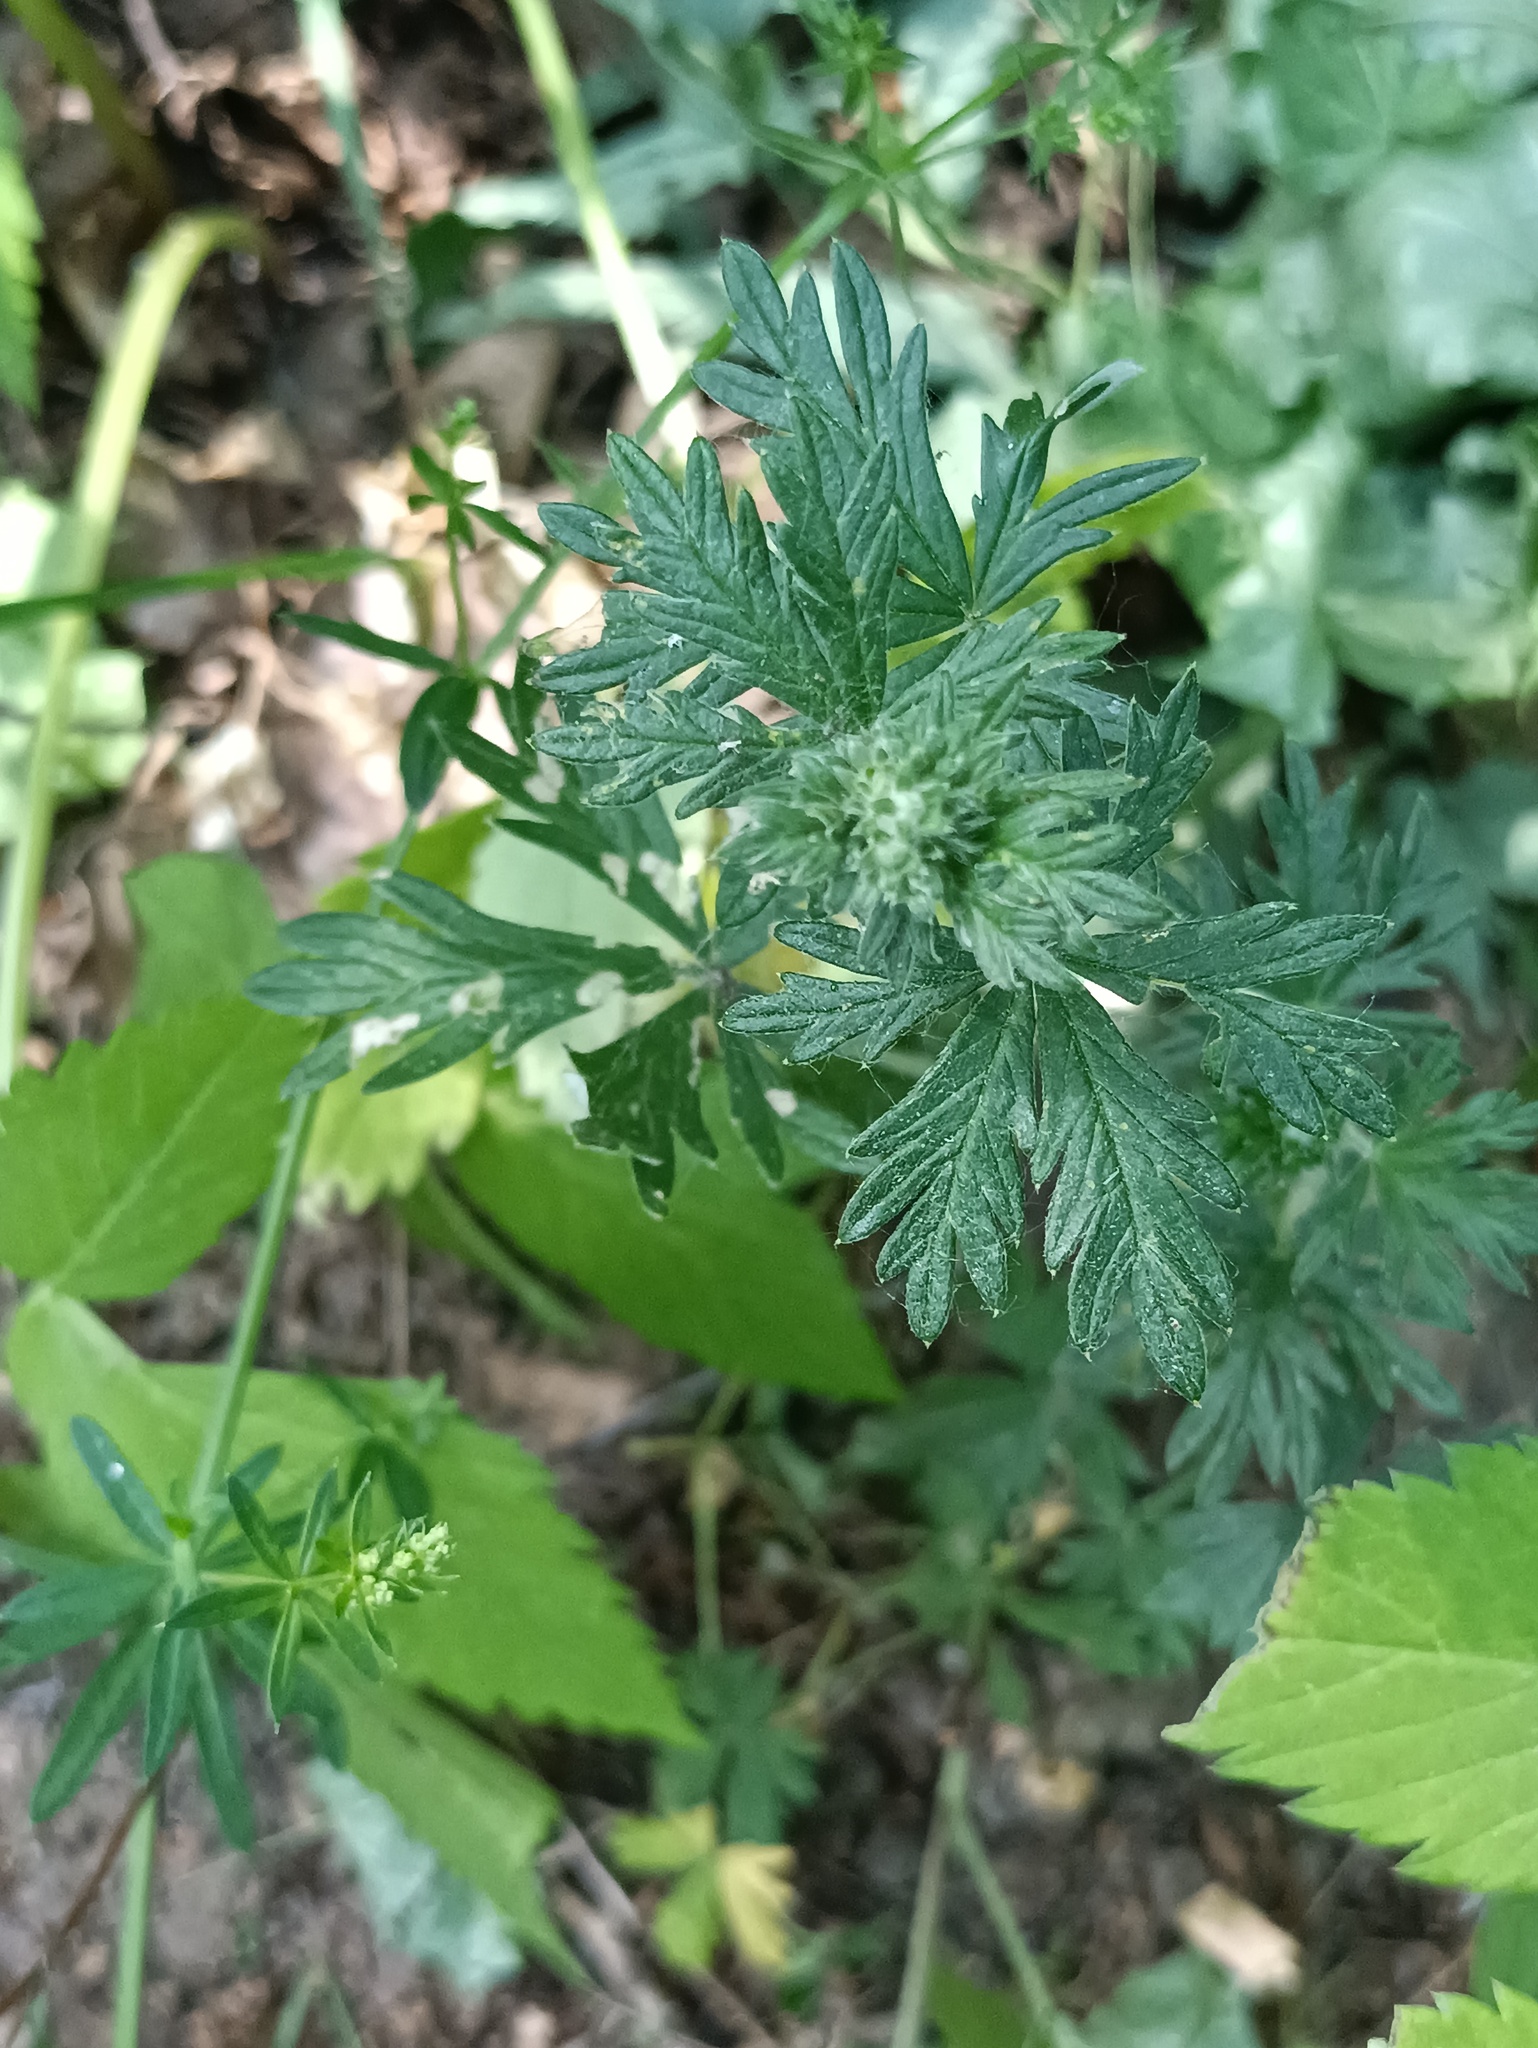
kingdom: Plantae
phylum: Tracheophyta
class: Magnoliopsida
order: Rosales
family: Rosaceae
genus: Potentilla
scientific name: Potentilla argentea
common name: Hoary cinquefoil
